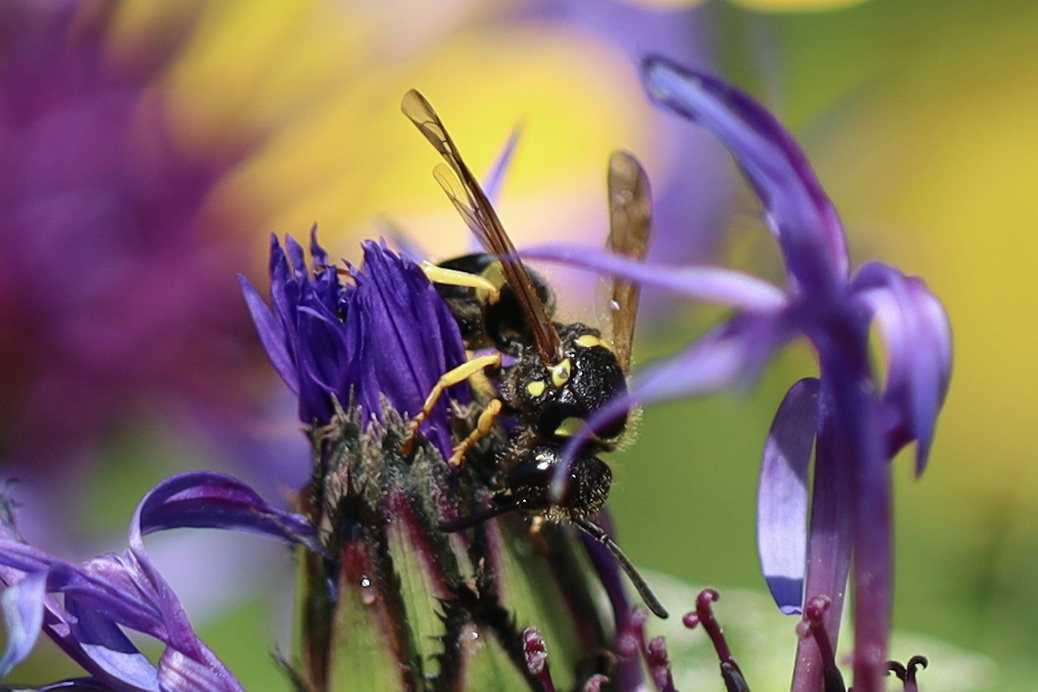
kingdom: Animalia
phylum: Arthropoda
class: Insecta
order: Hymenoptera
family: Vespidae
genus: Ancistrocerus
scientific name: Ancistrocerus waldenii
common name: Walden’s potter wasp
